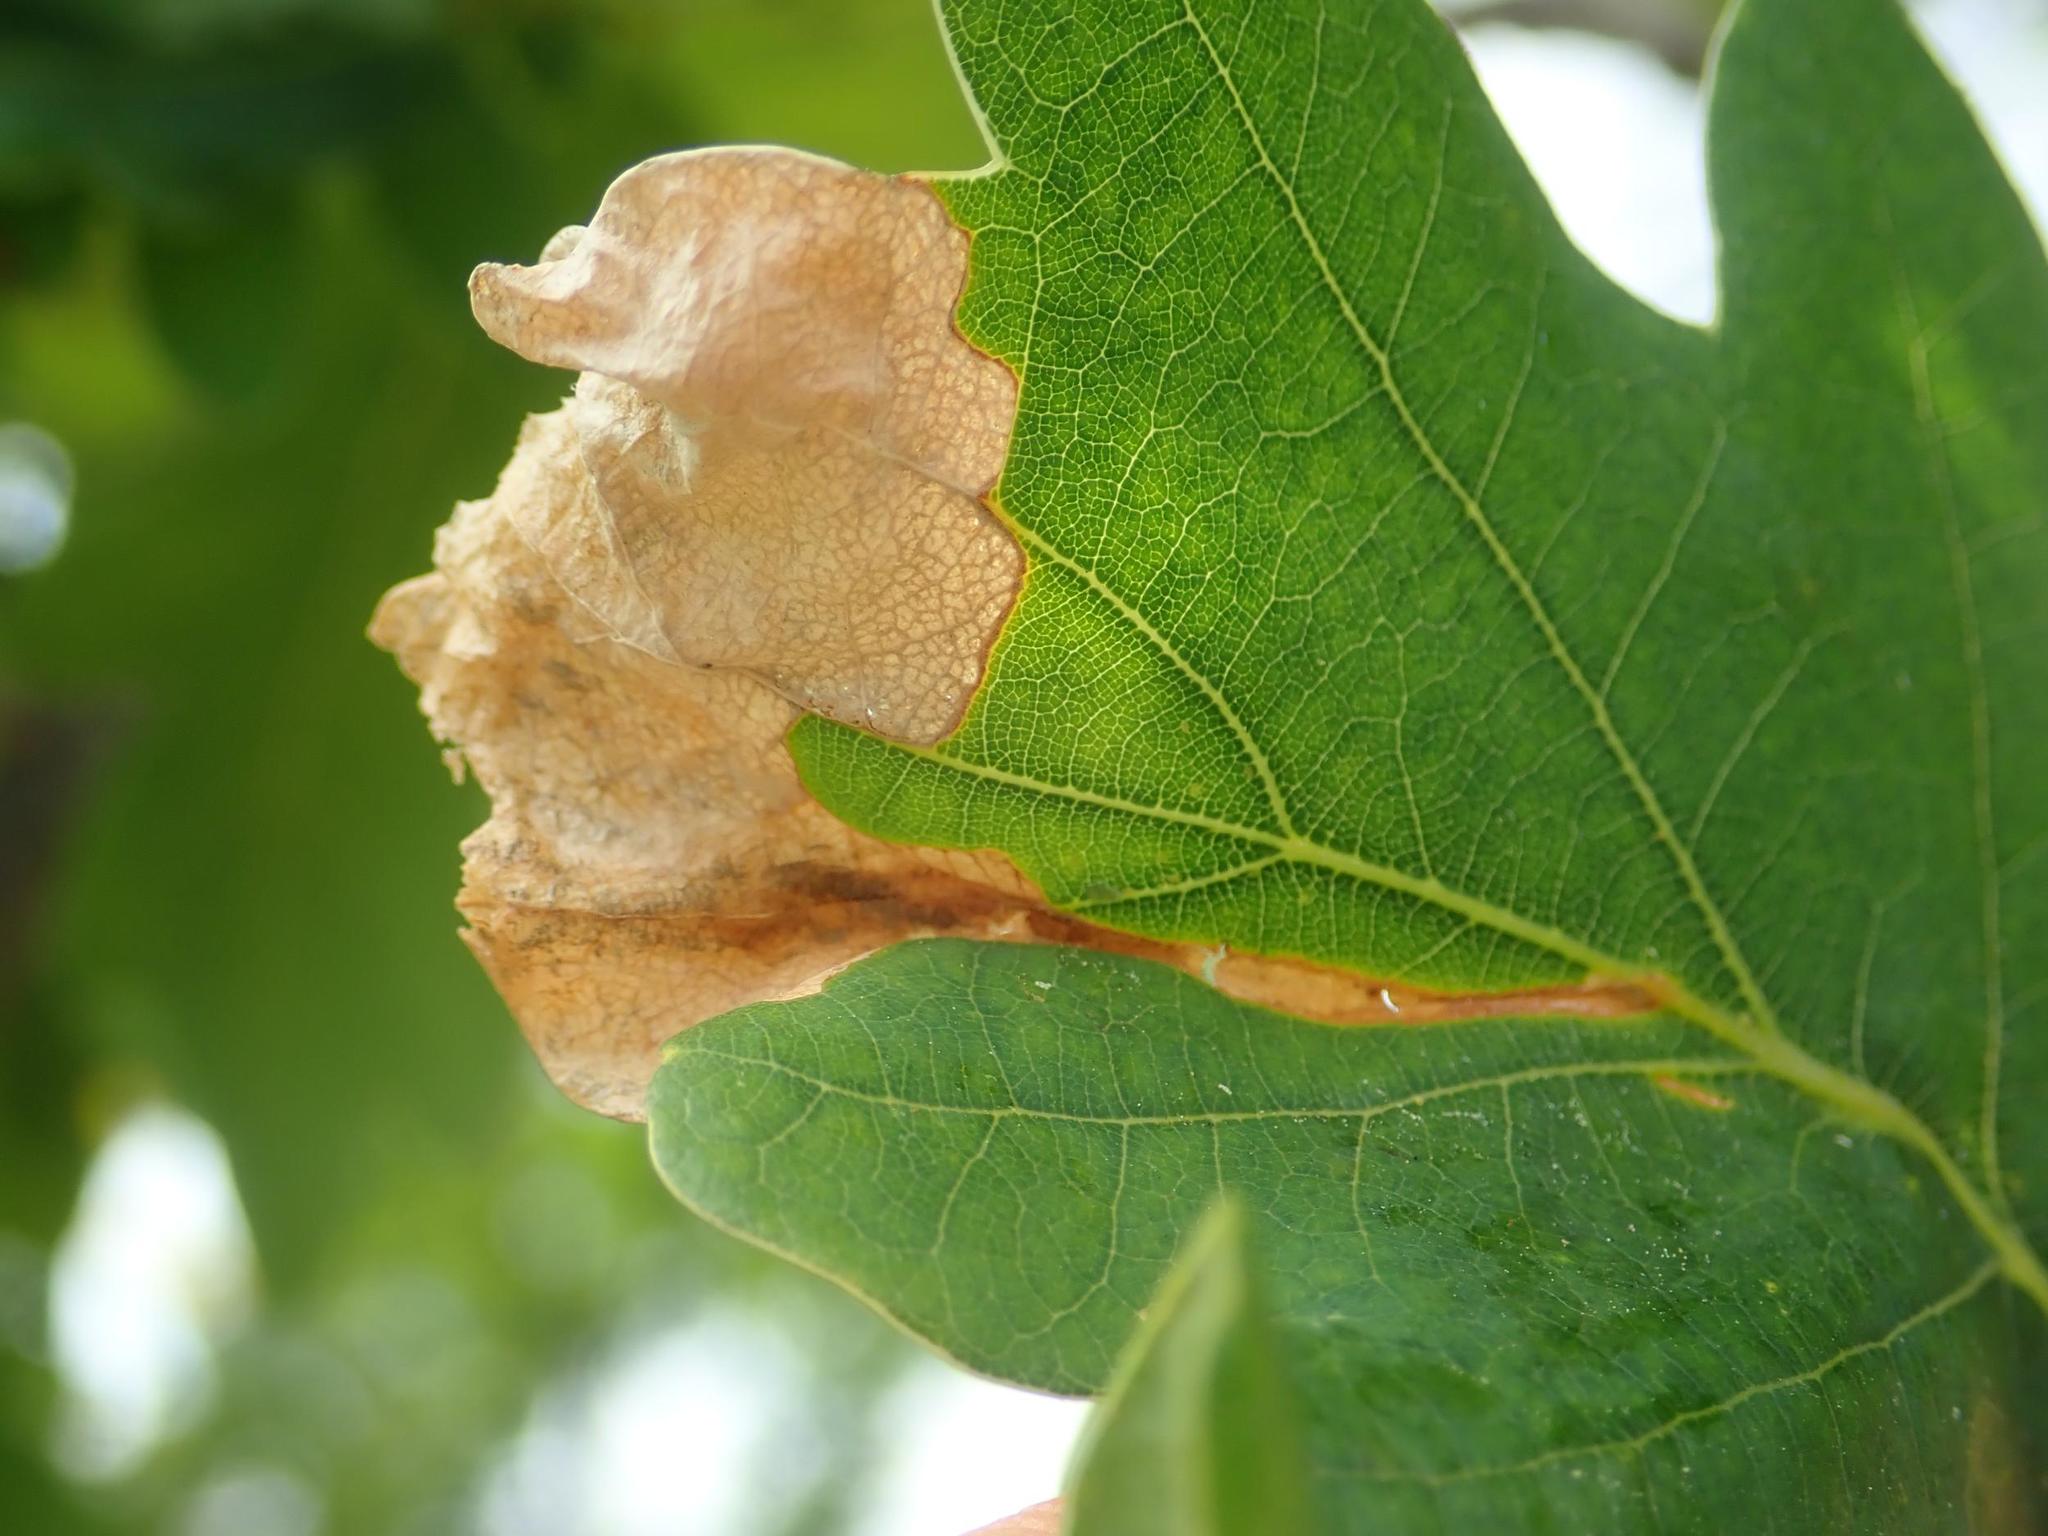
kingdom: Animalia
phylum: Arthropoda
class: Insecta
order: Coleoptera
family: Curculionidae
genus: Orchestes
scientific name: Orchestes quercus
